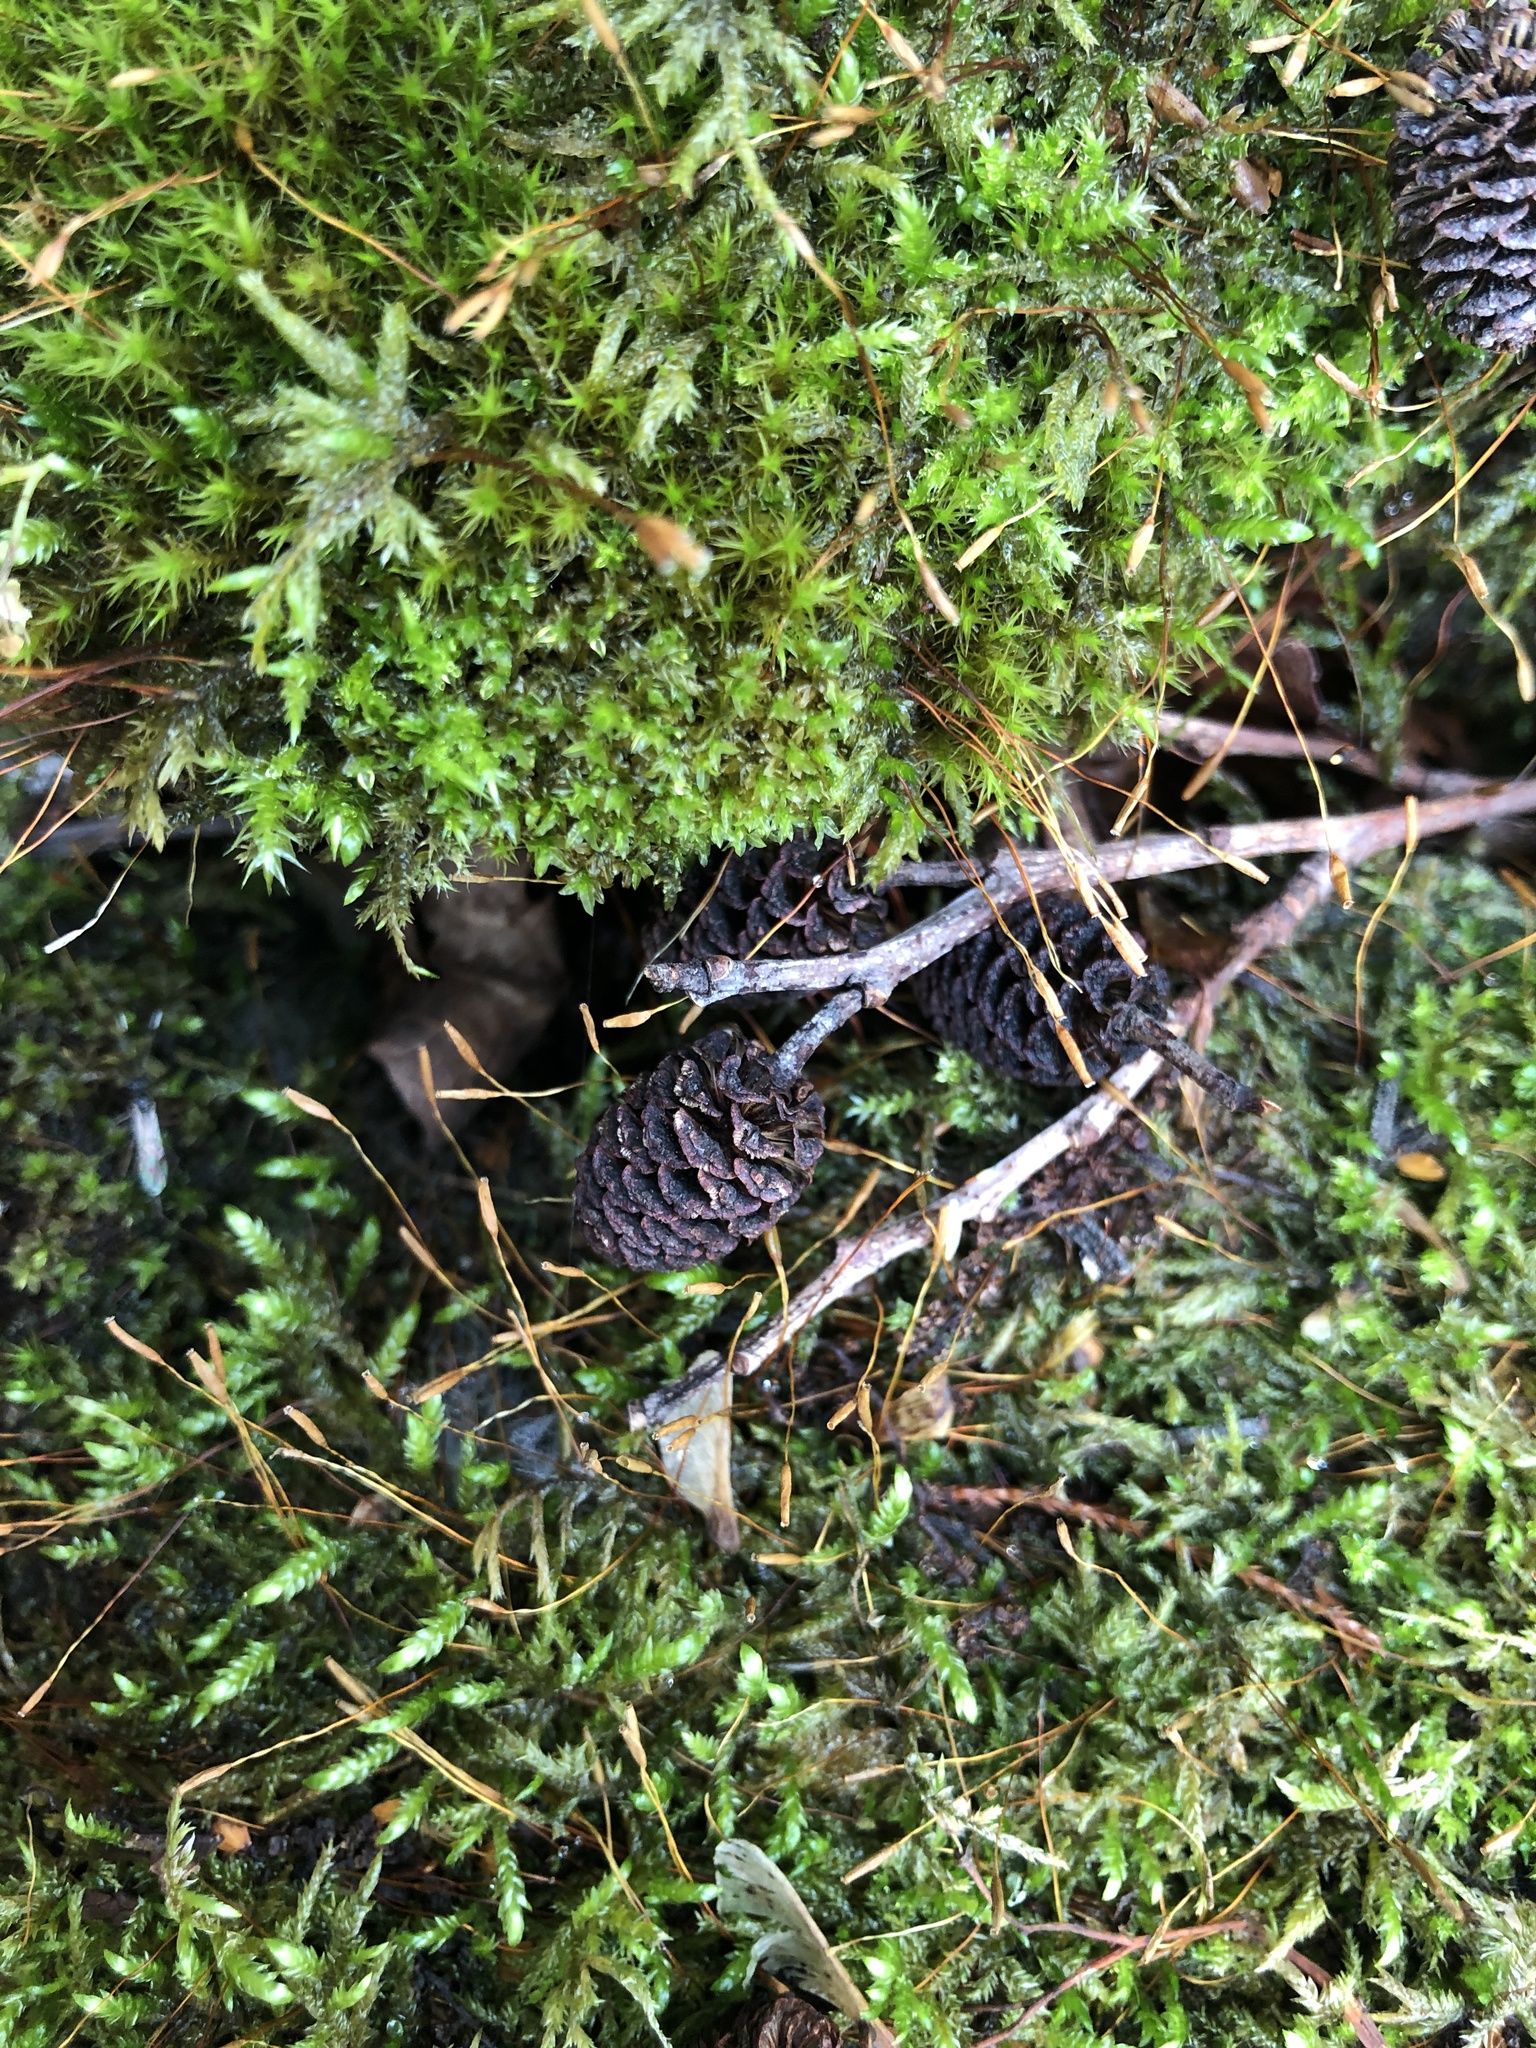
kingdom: Plantae
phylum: Tracheophyta
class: Magnoliopsida
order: Fagales
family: Betulaceae
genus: Alnus
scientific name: Alnus formosana
